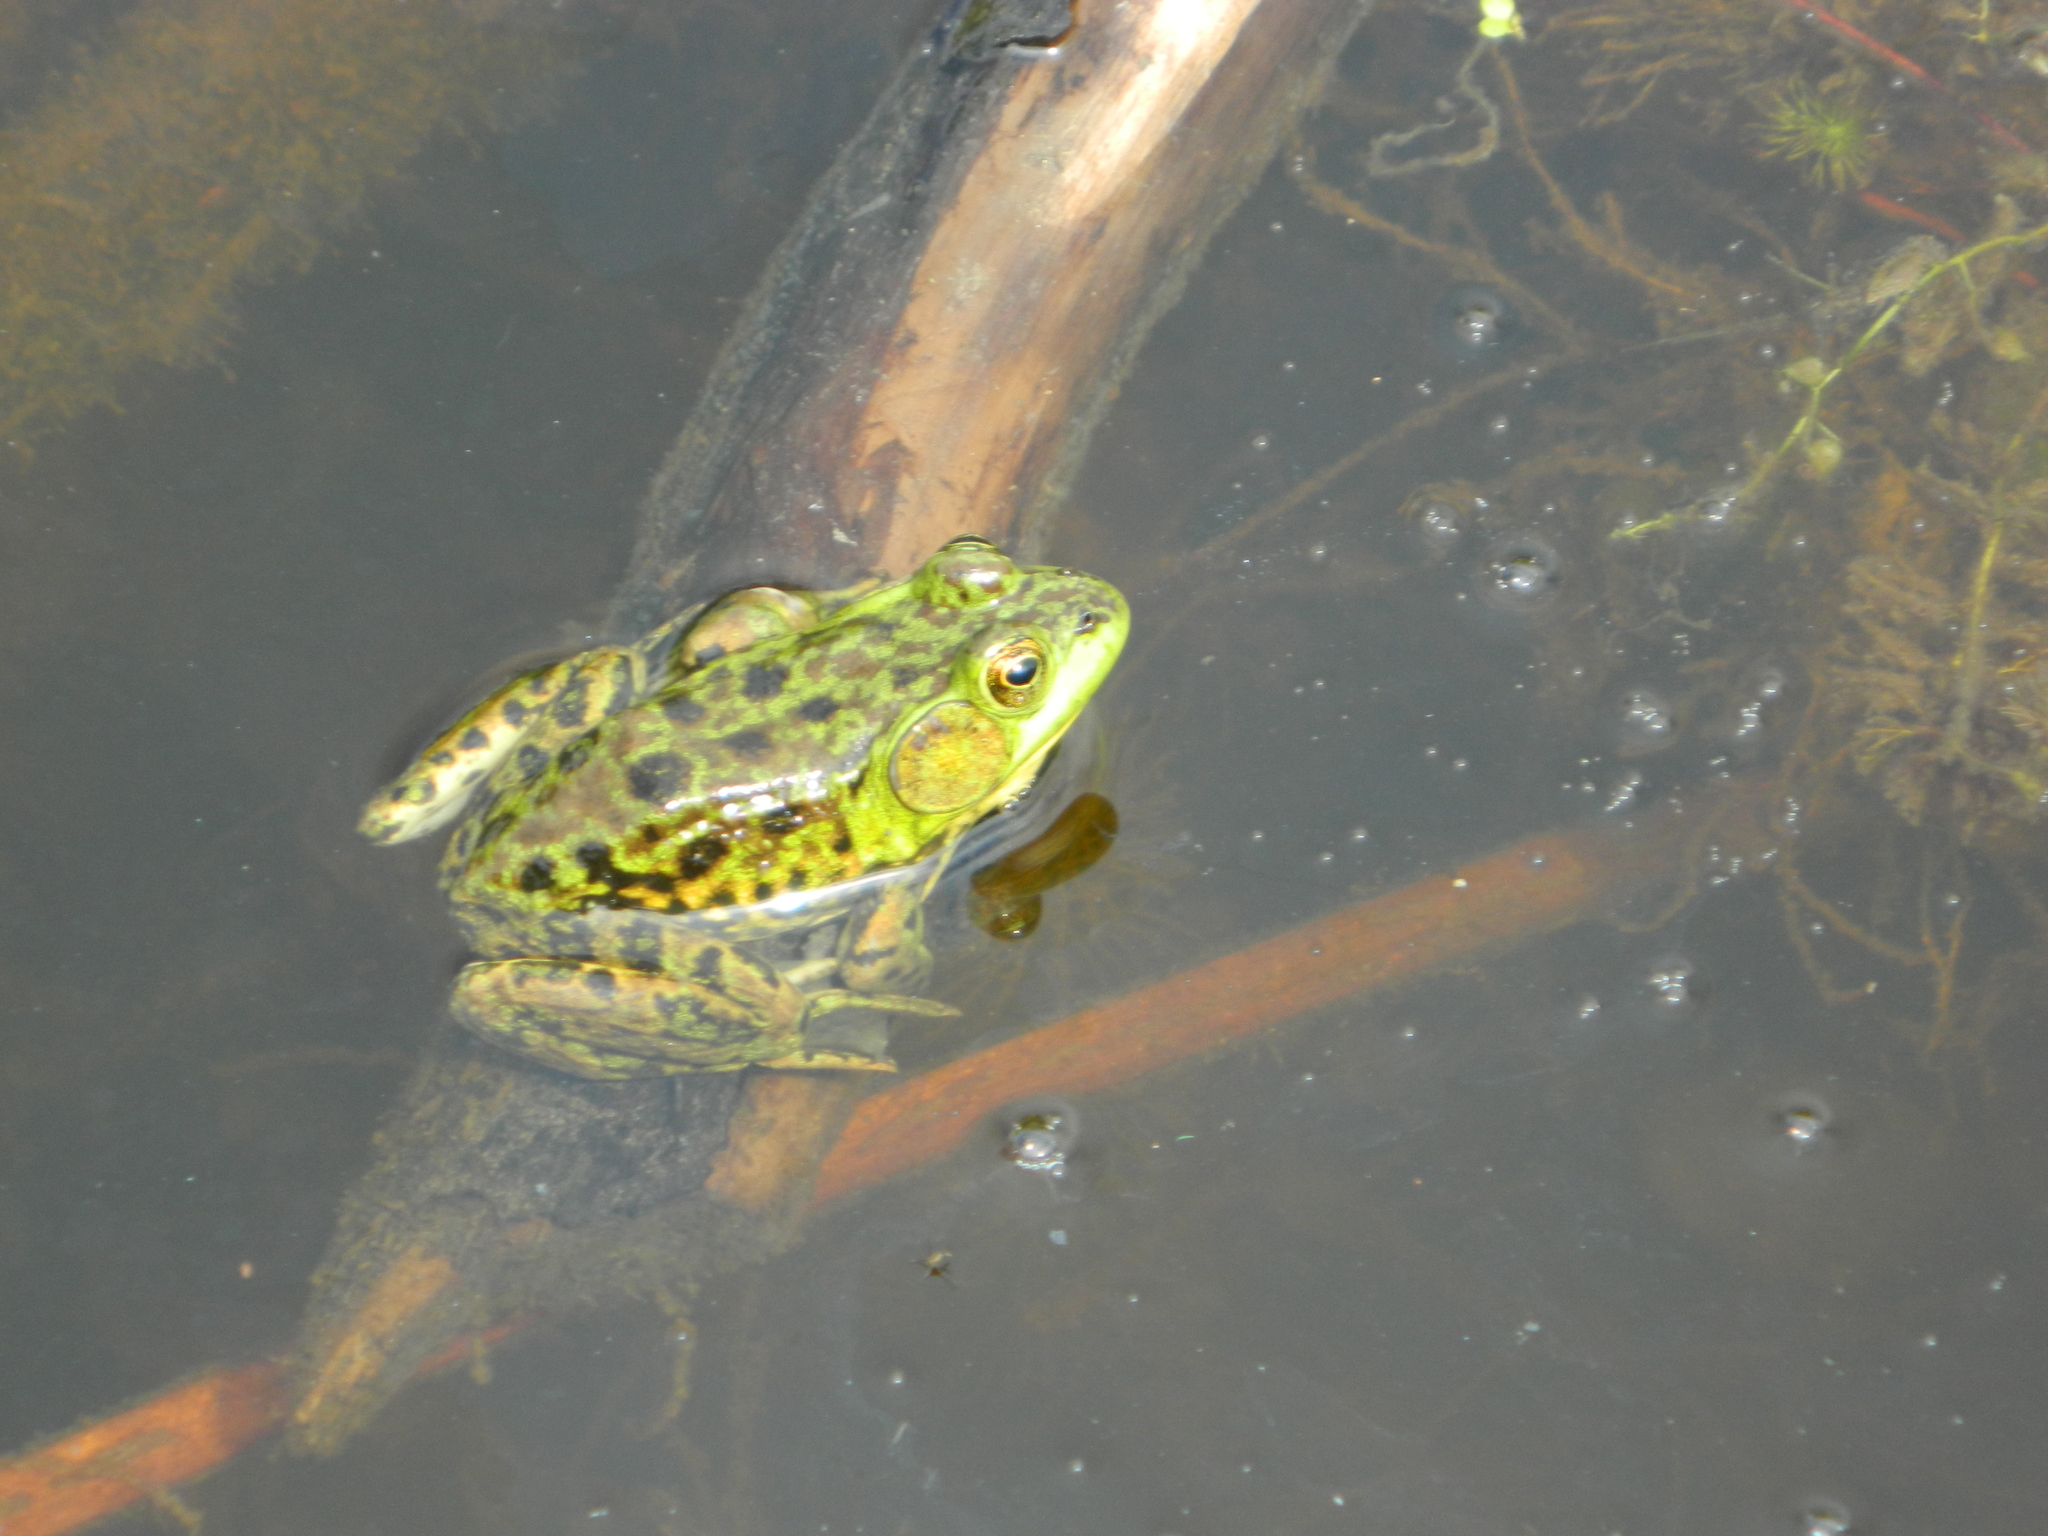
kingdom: Animalia
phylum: Chordata
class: Amphibia
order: Anura
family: Ranidae
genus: Lithobates
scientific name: Lithobates septentrionalis
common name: Mink frog
